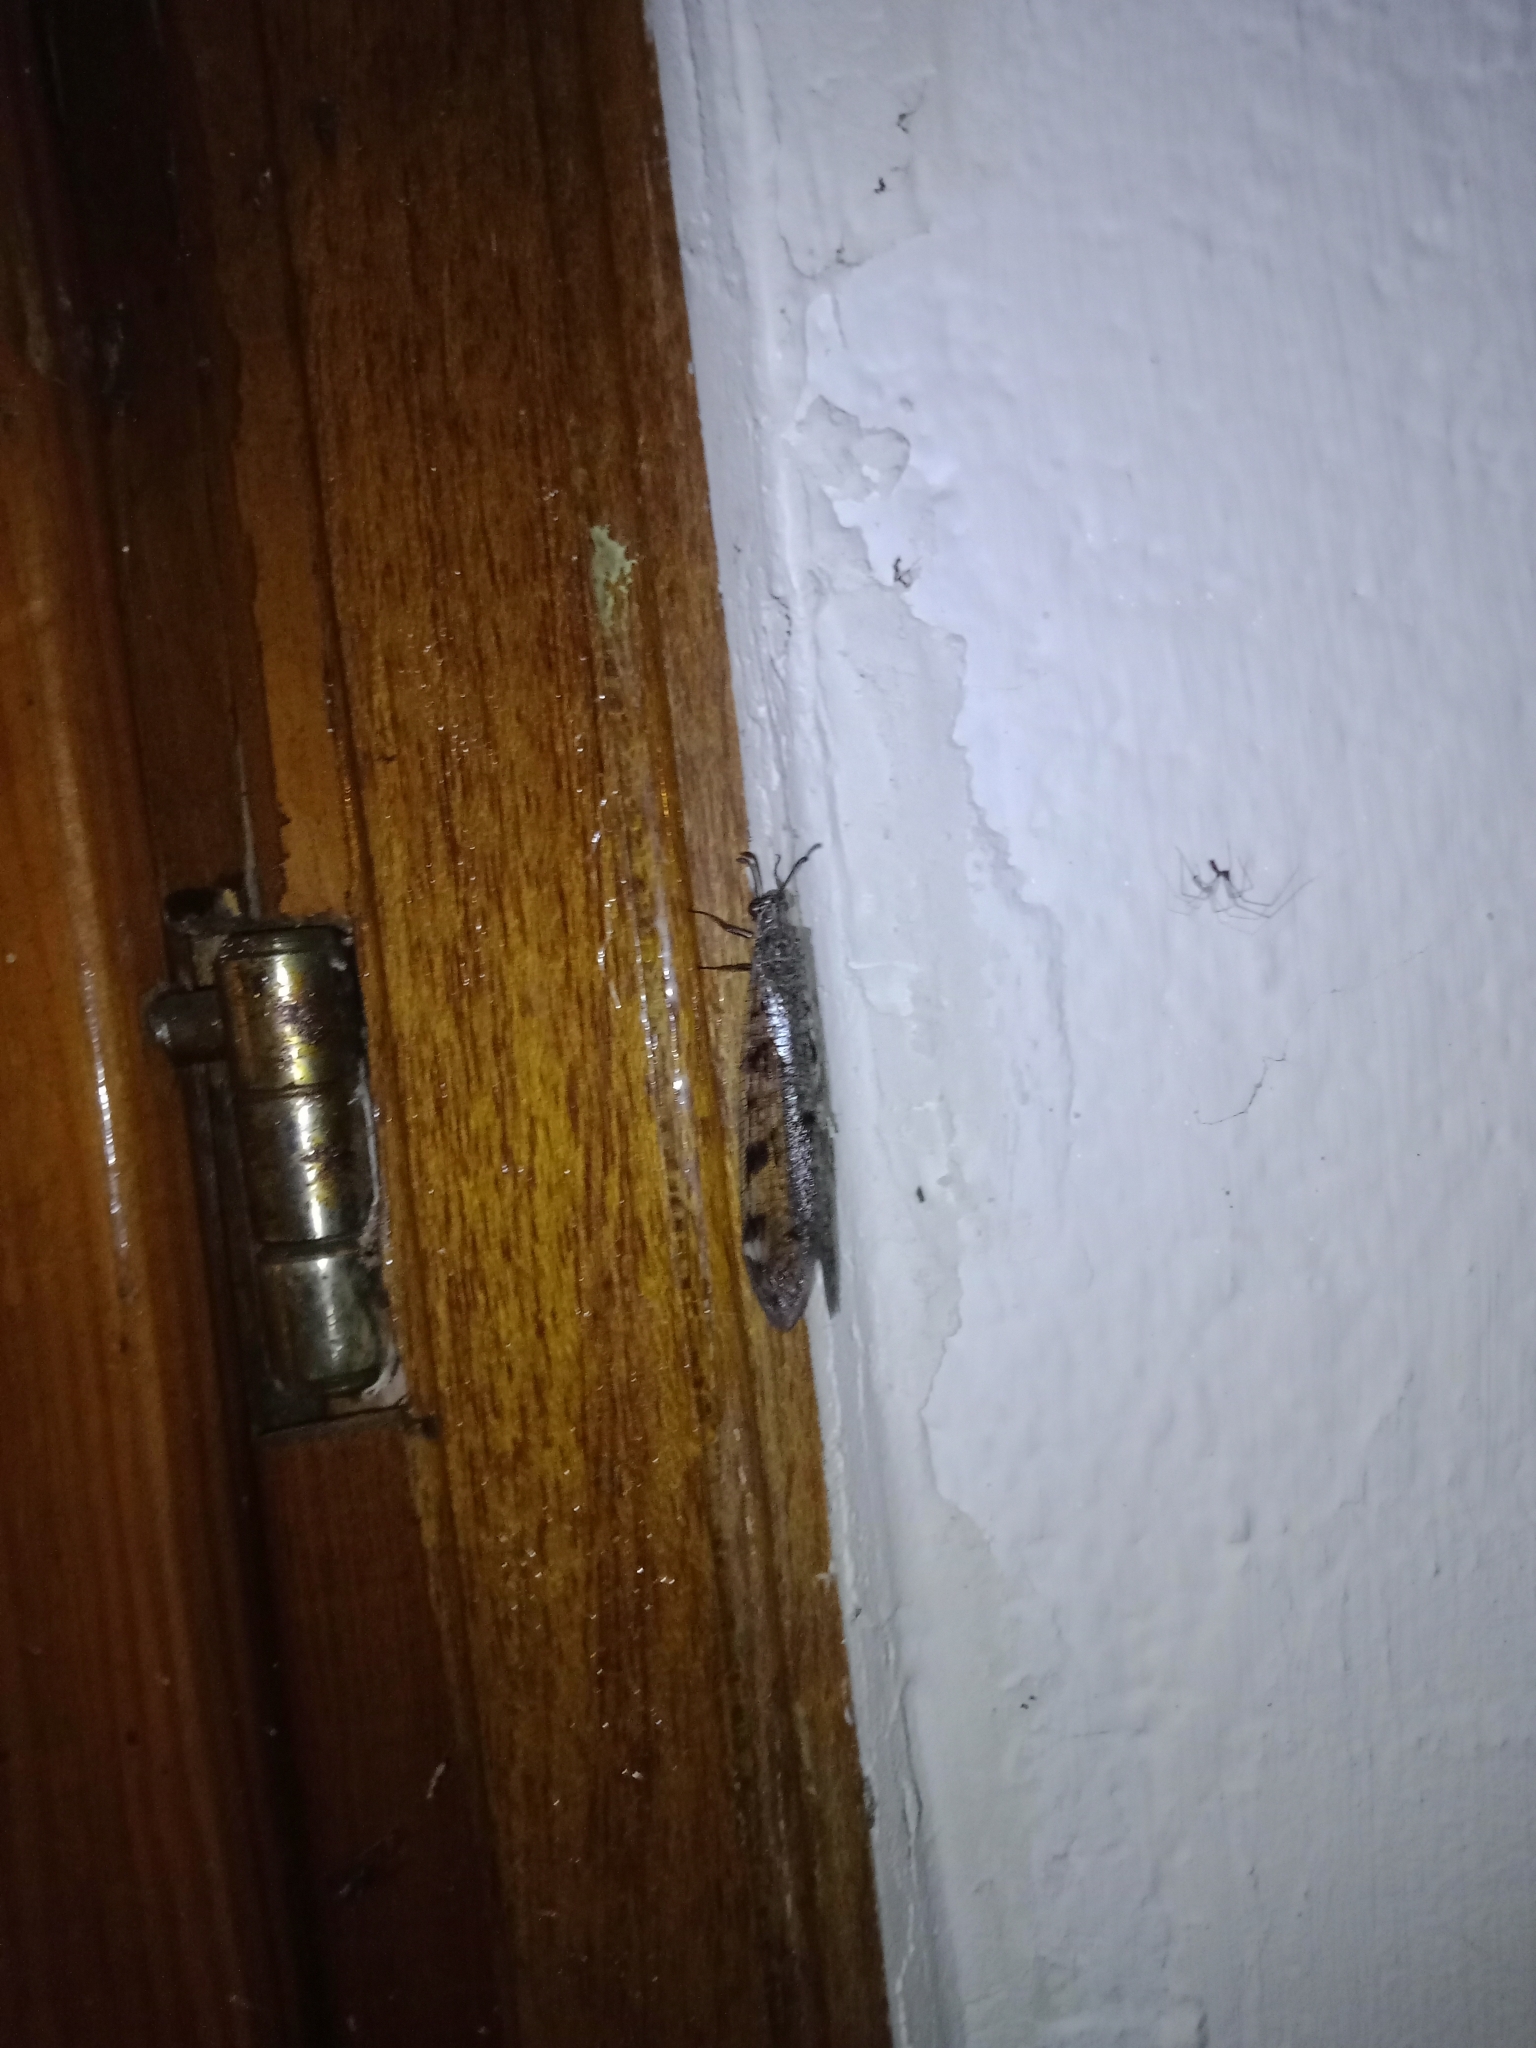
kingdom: Animalia
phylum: Arthropoda
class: Insecta
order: Neuroptera
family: Myrmeleontidae
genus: Euroleon
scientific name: Euroleon nostras
